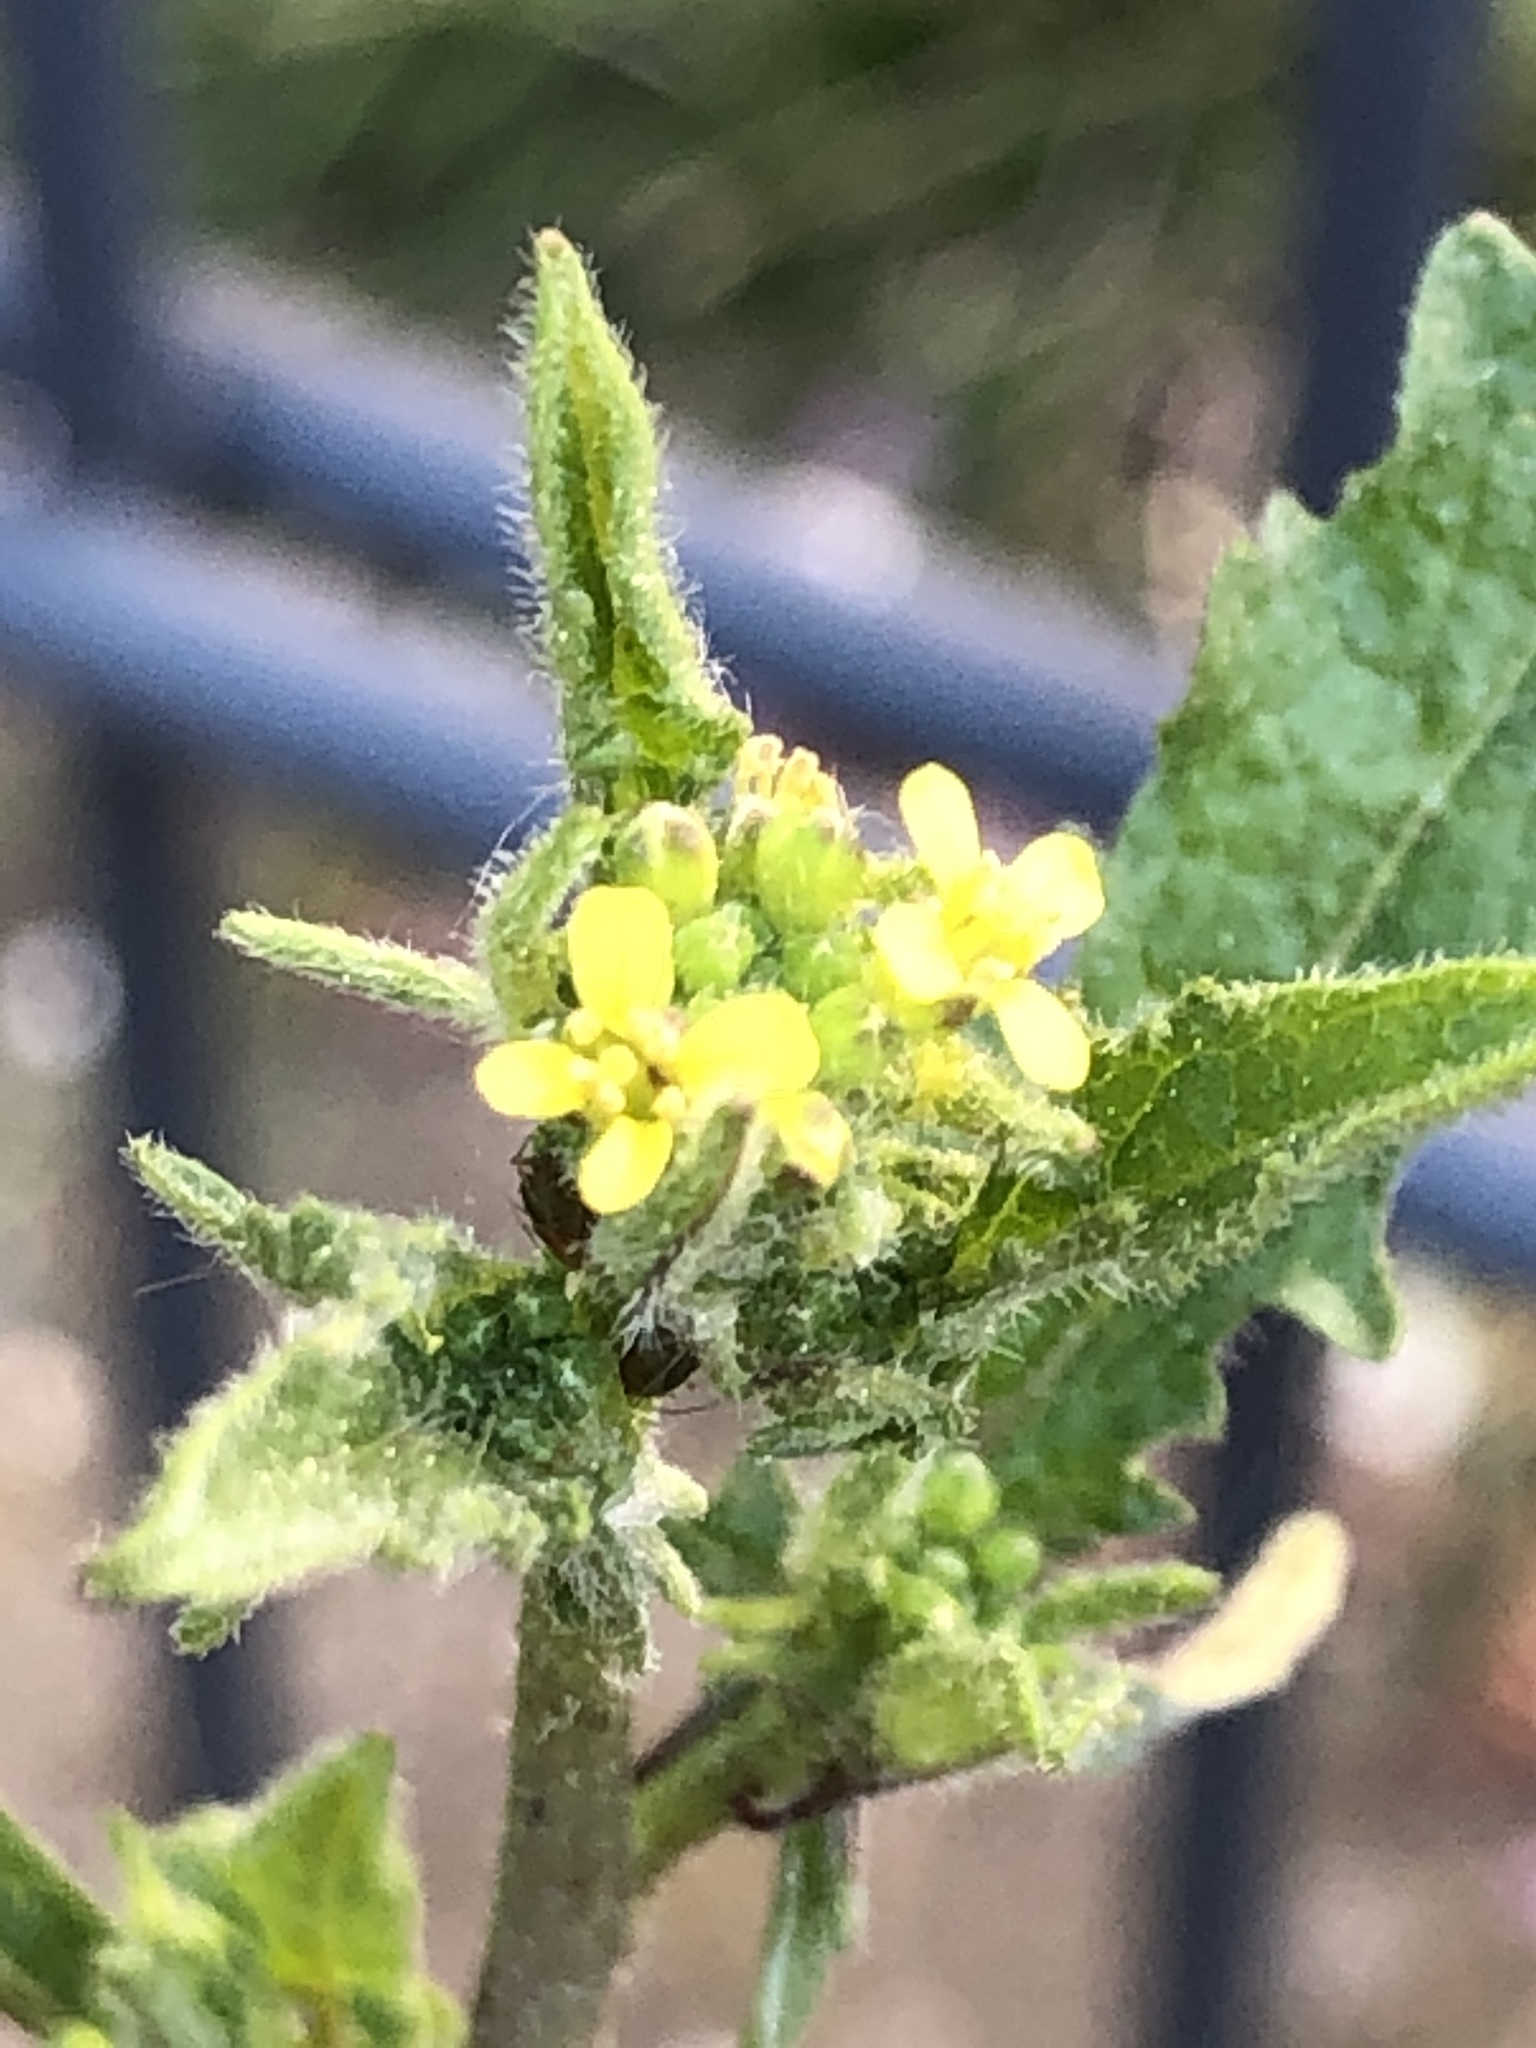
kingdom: Plantae
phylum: Tracheophyta
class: Magnoliopsida
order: Brassicales
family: Brassicaceae
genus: Sisymbrium
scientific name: Sisymbrium officinale
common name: Hedge mustard
